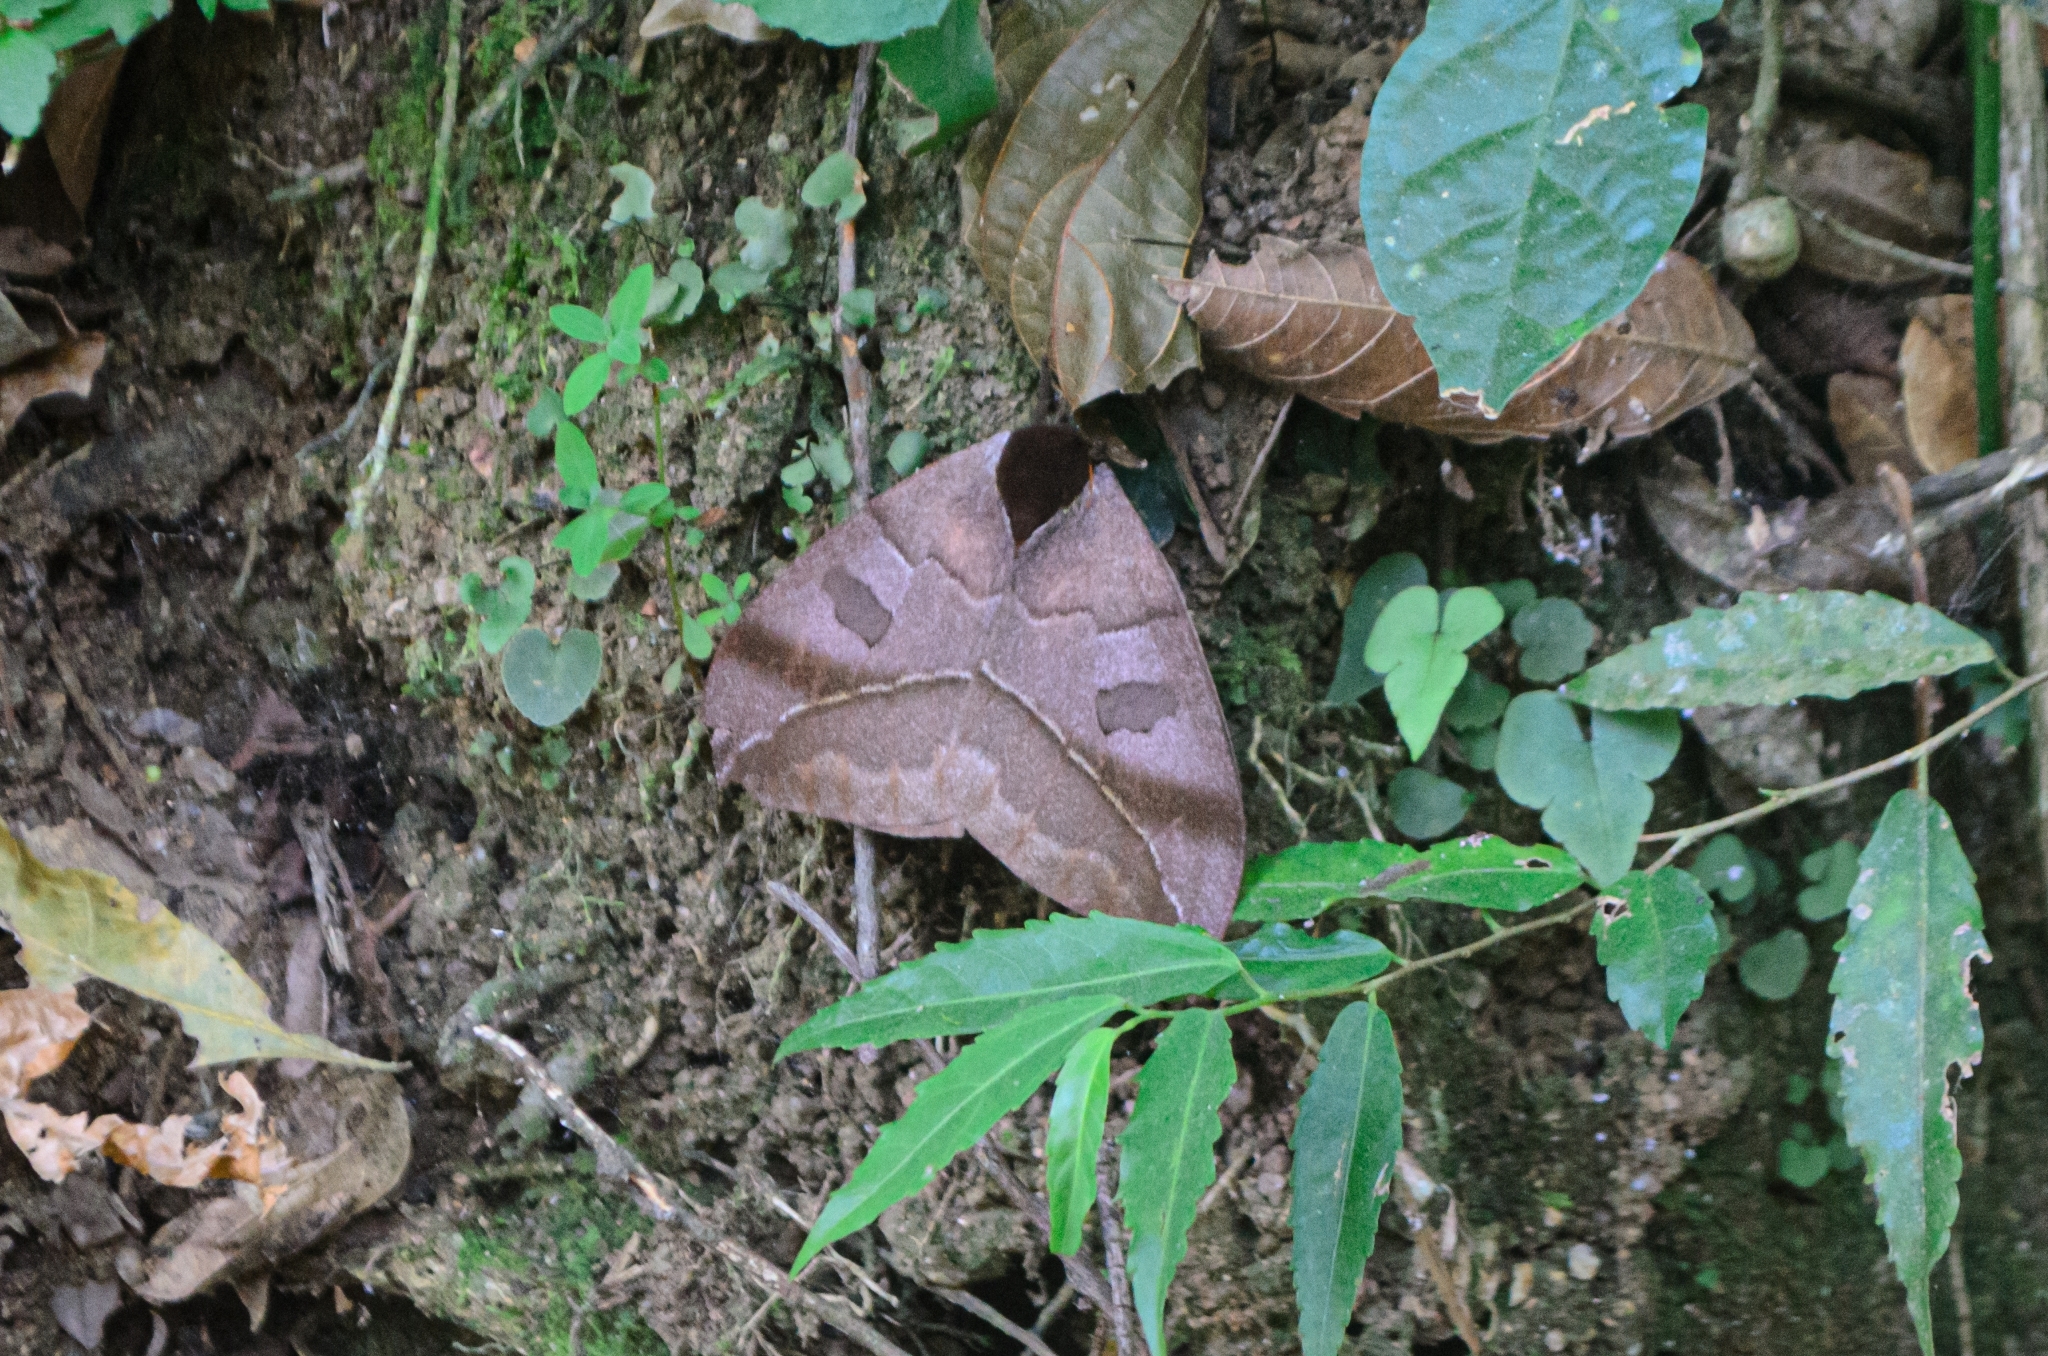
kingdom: Animalia
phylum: Arthropoda
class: Insecta
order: Lepidoptera
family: Saturniidae
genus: Automeris
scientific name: Automeris illustris
